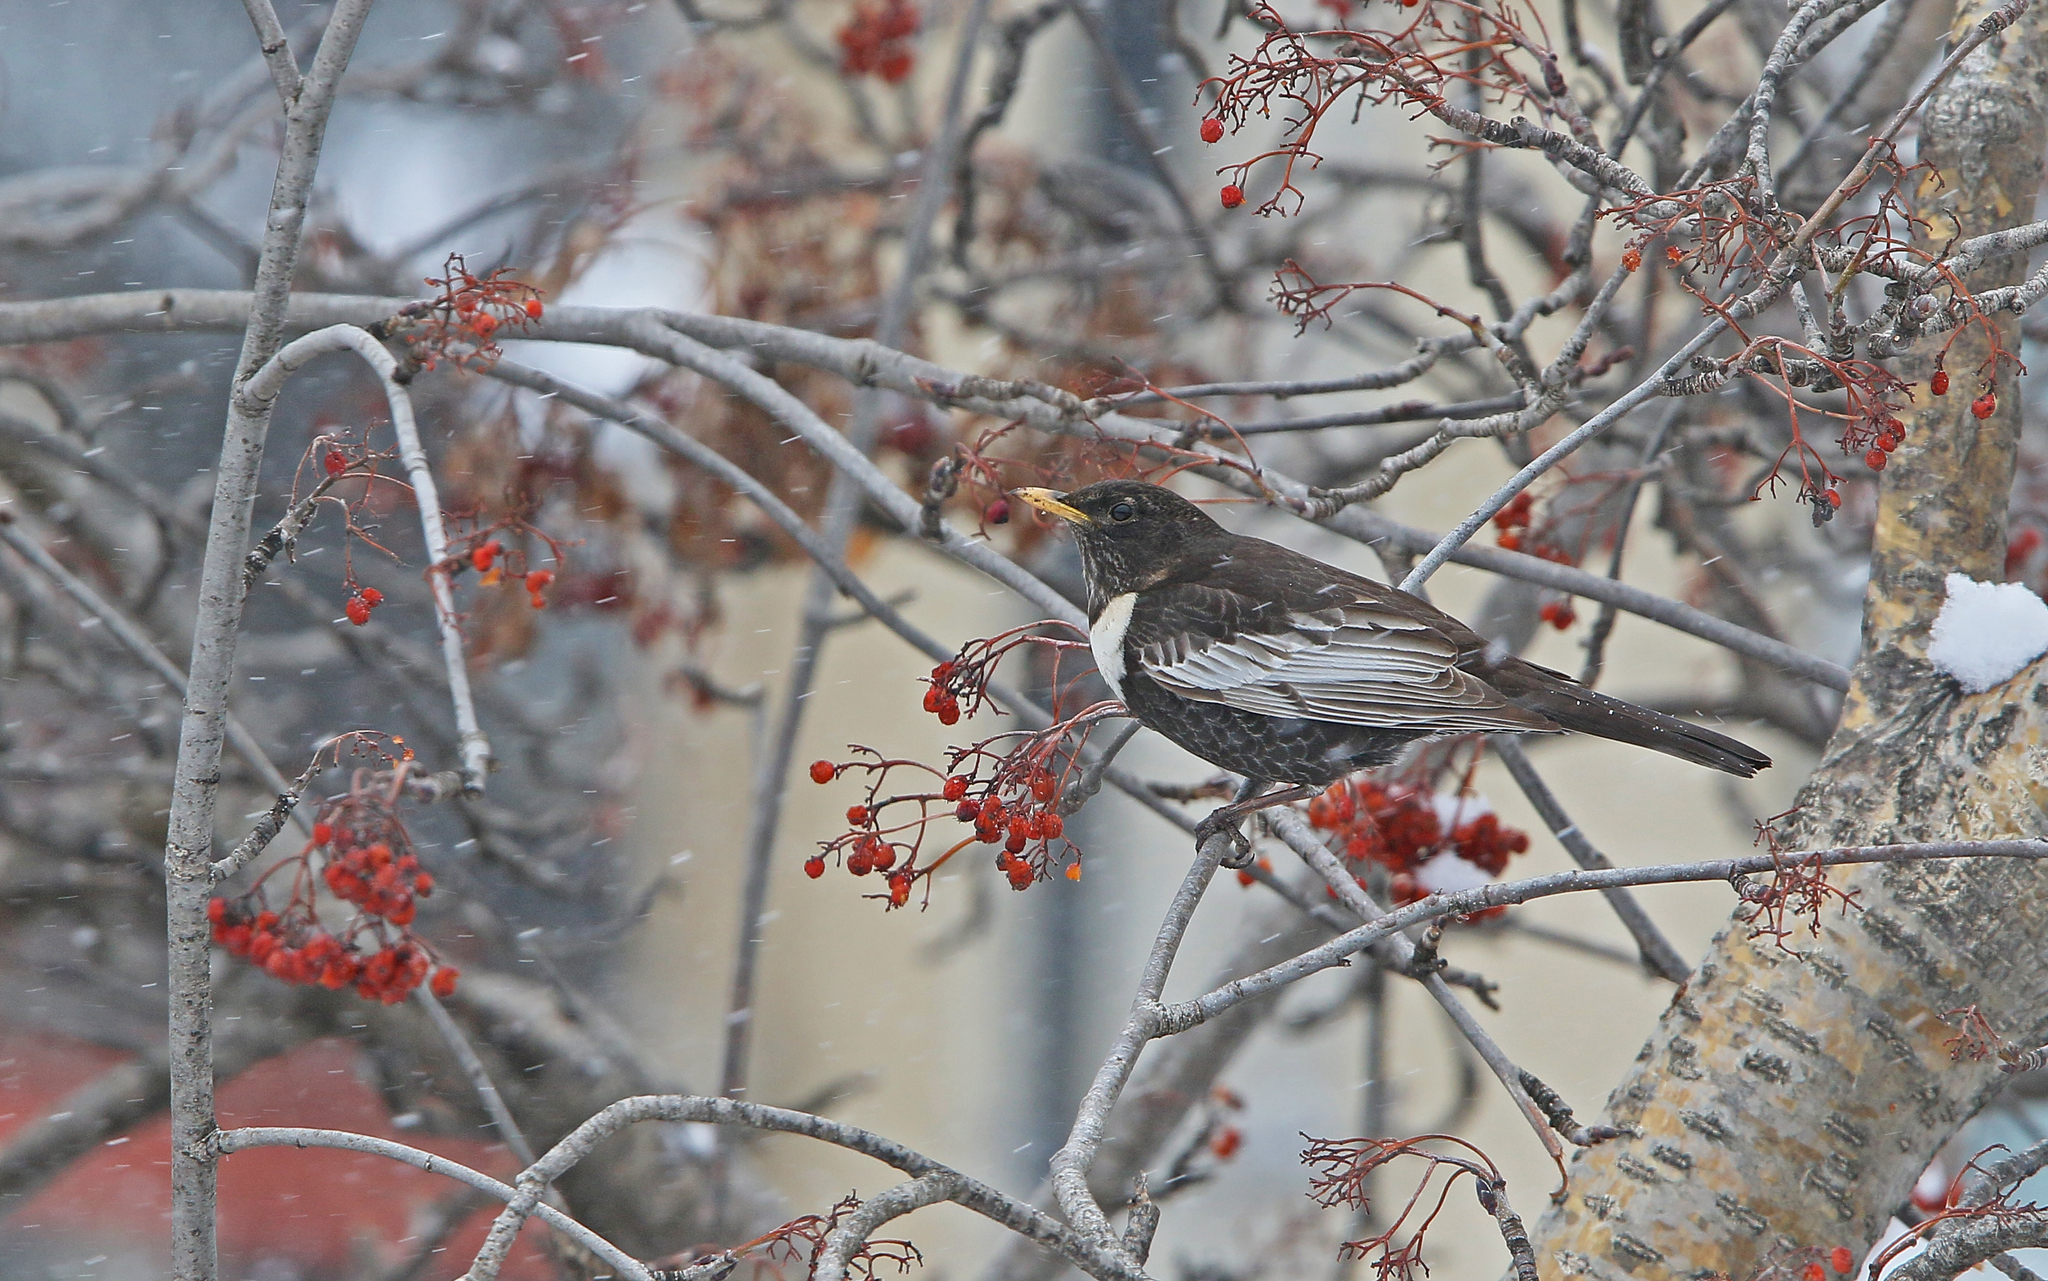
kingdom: Animalia
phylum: Chordata
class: Aves
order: Passeriformes
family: Turdidae
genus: Turdus
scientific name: Turdus torquatus
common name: Ring ouzel
